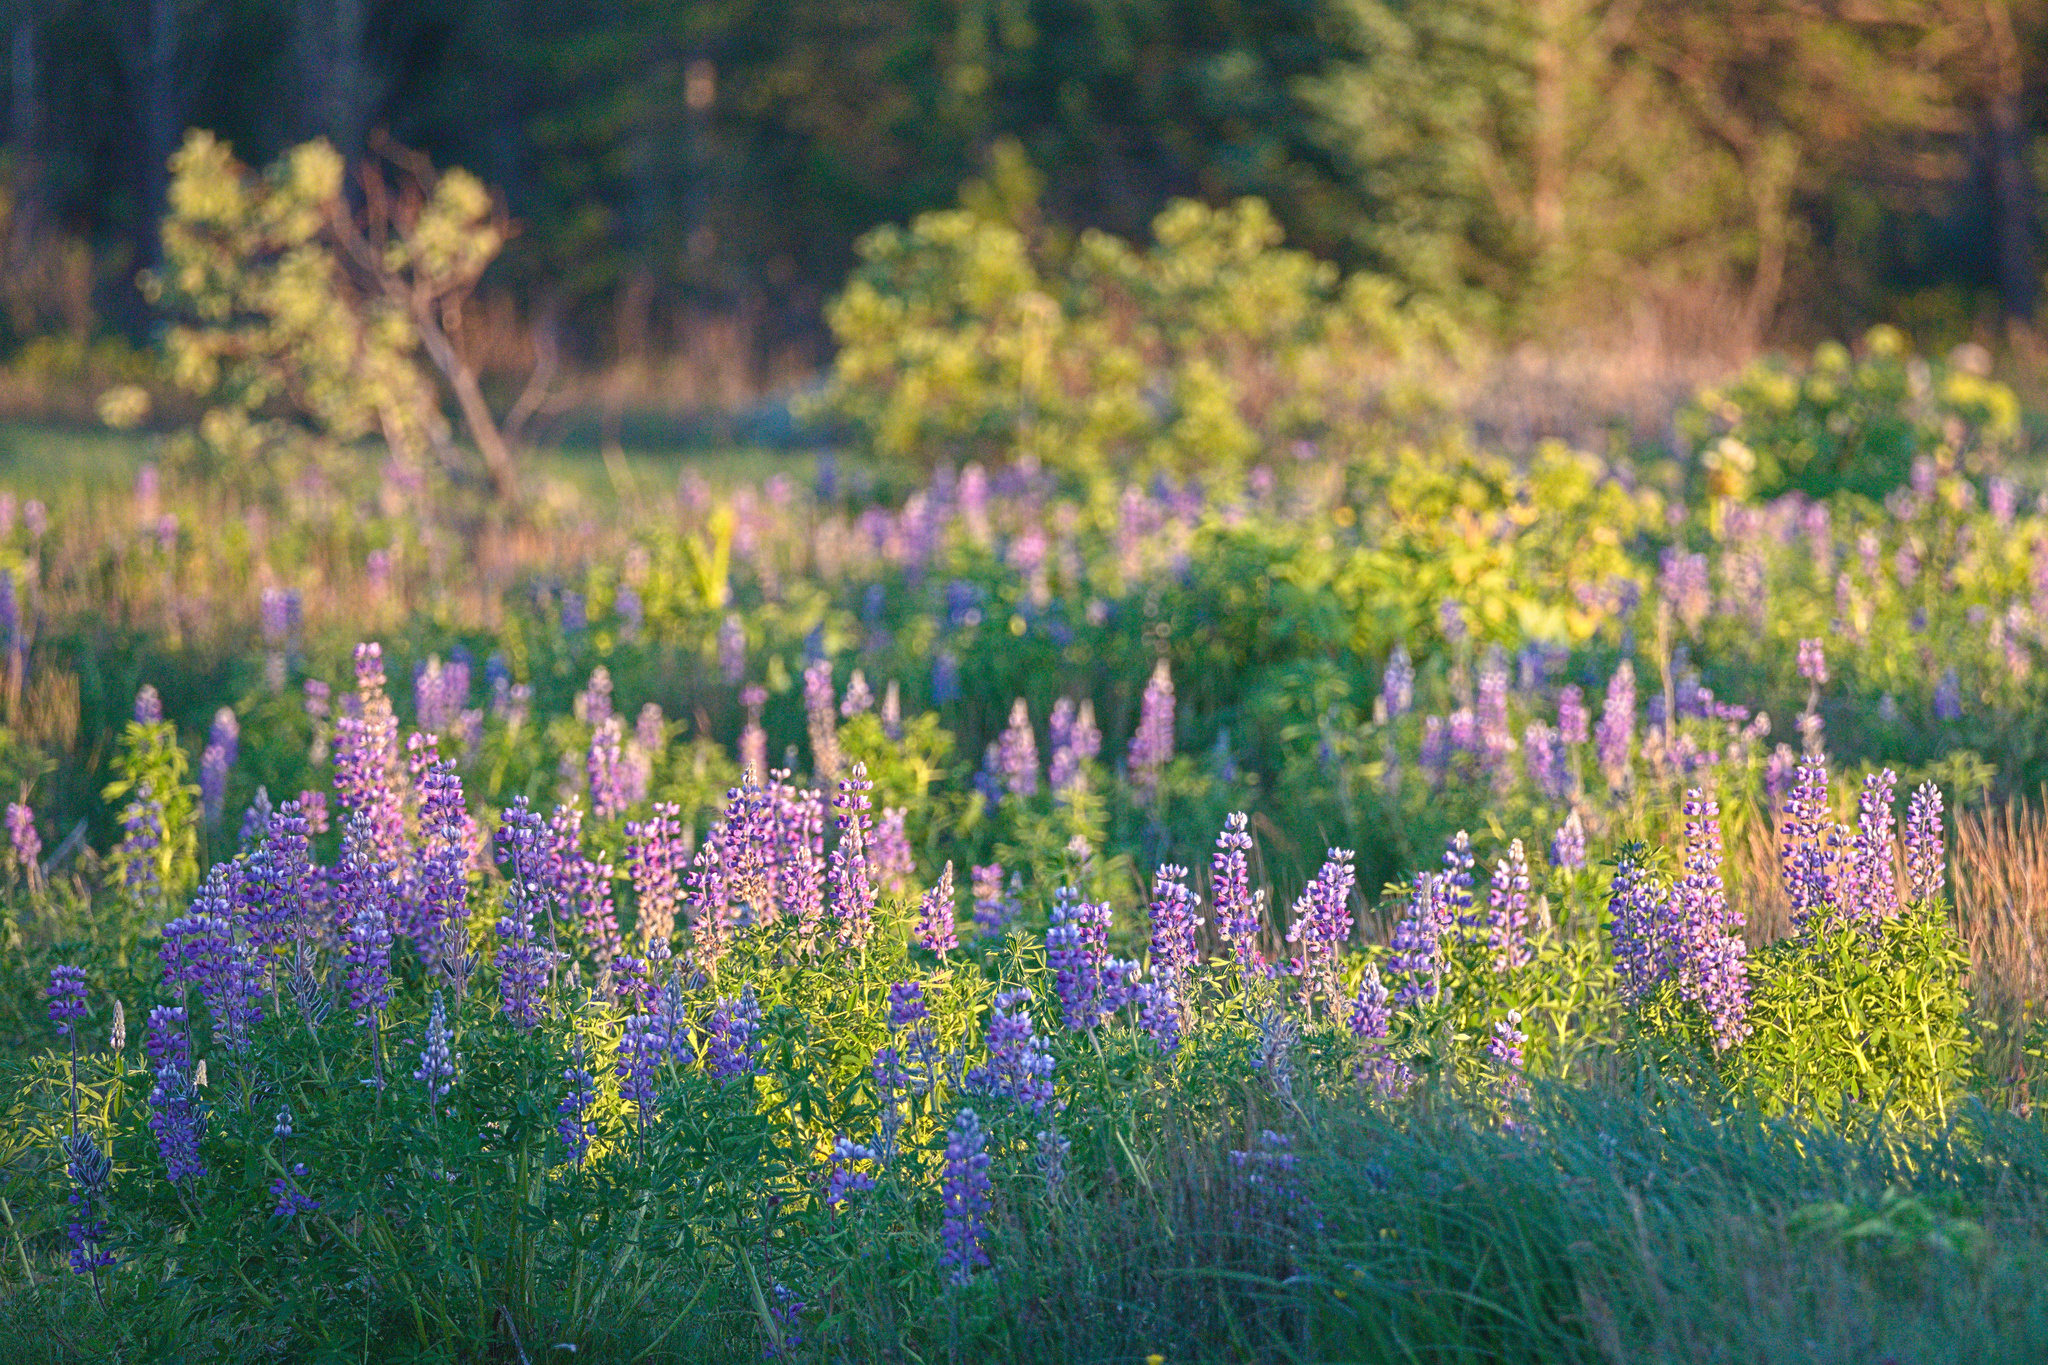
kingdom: Plantae
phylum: Tracheophyta
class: Magnoliopsida
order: Fabales
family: Fabaceae
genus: Lupinus
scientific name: Lupinus nootkatensis
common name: Nootka lupine
